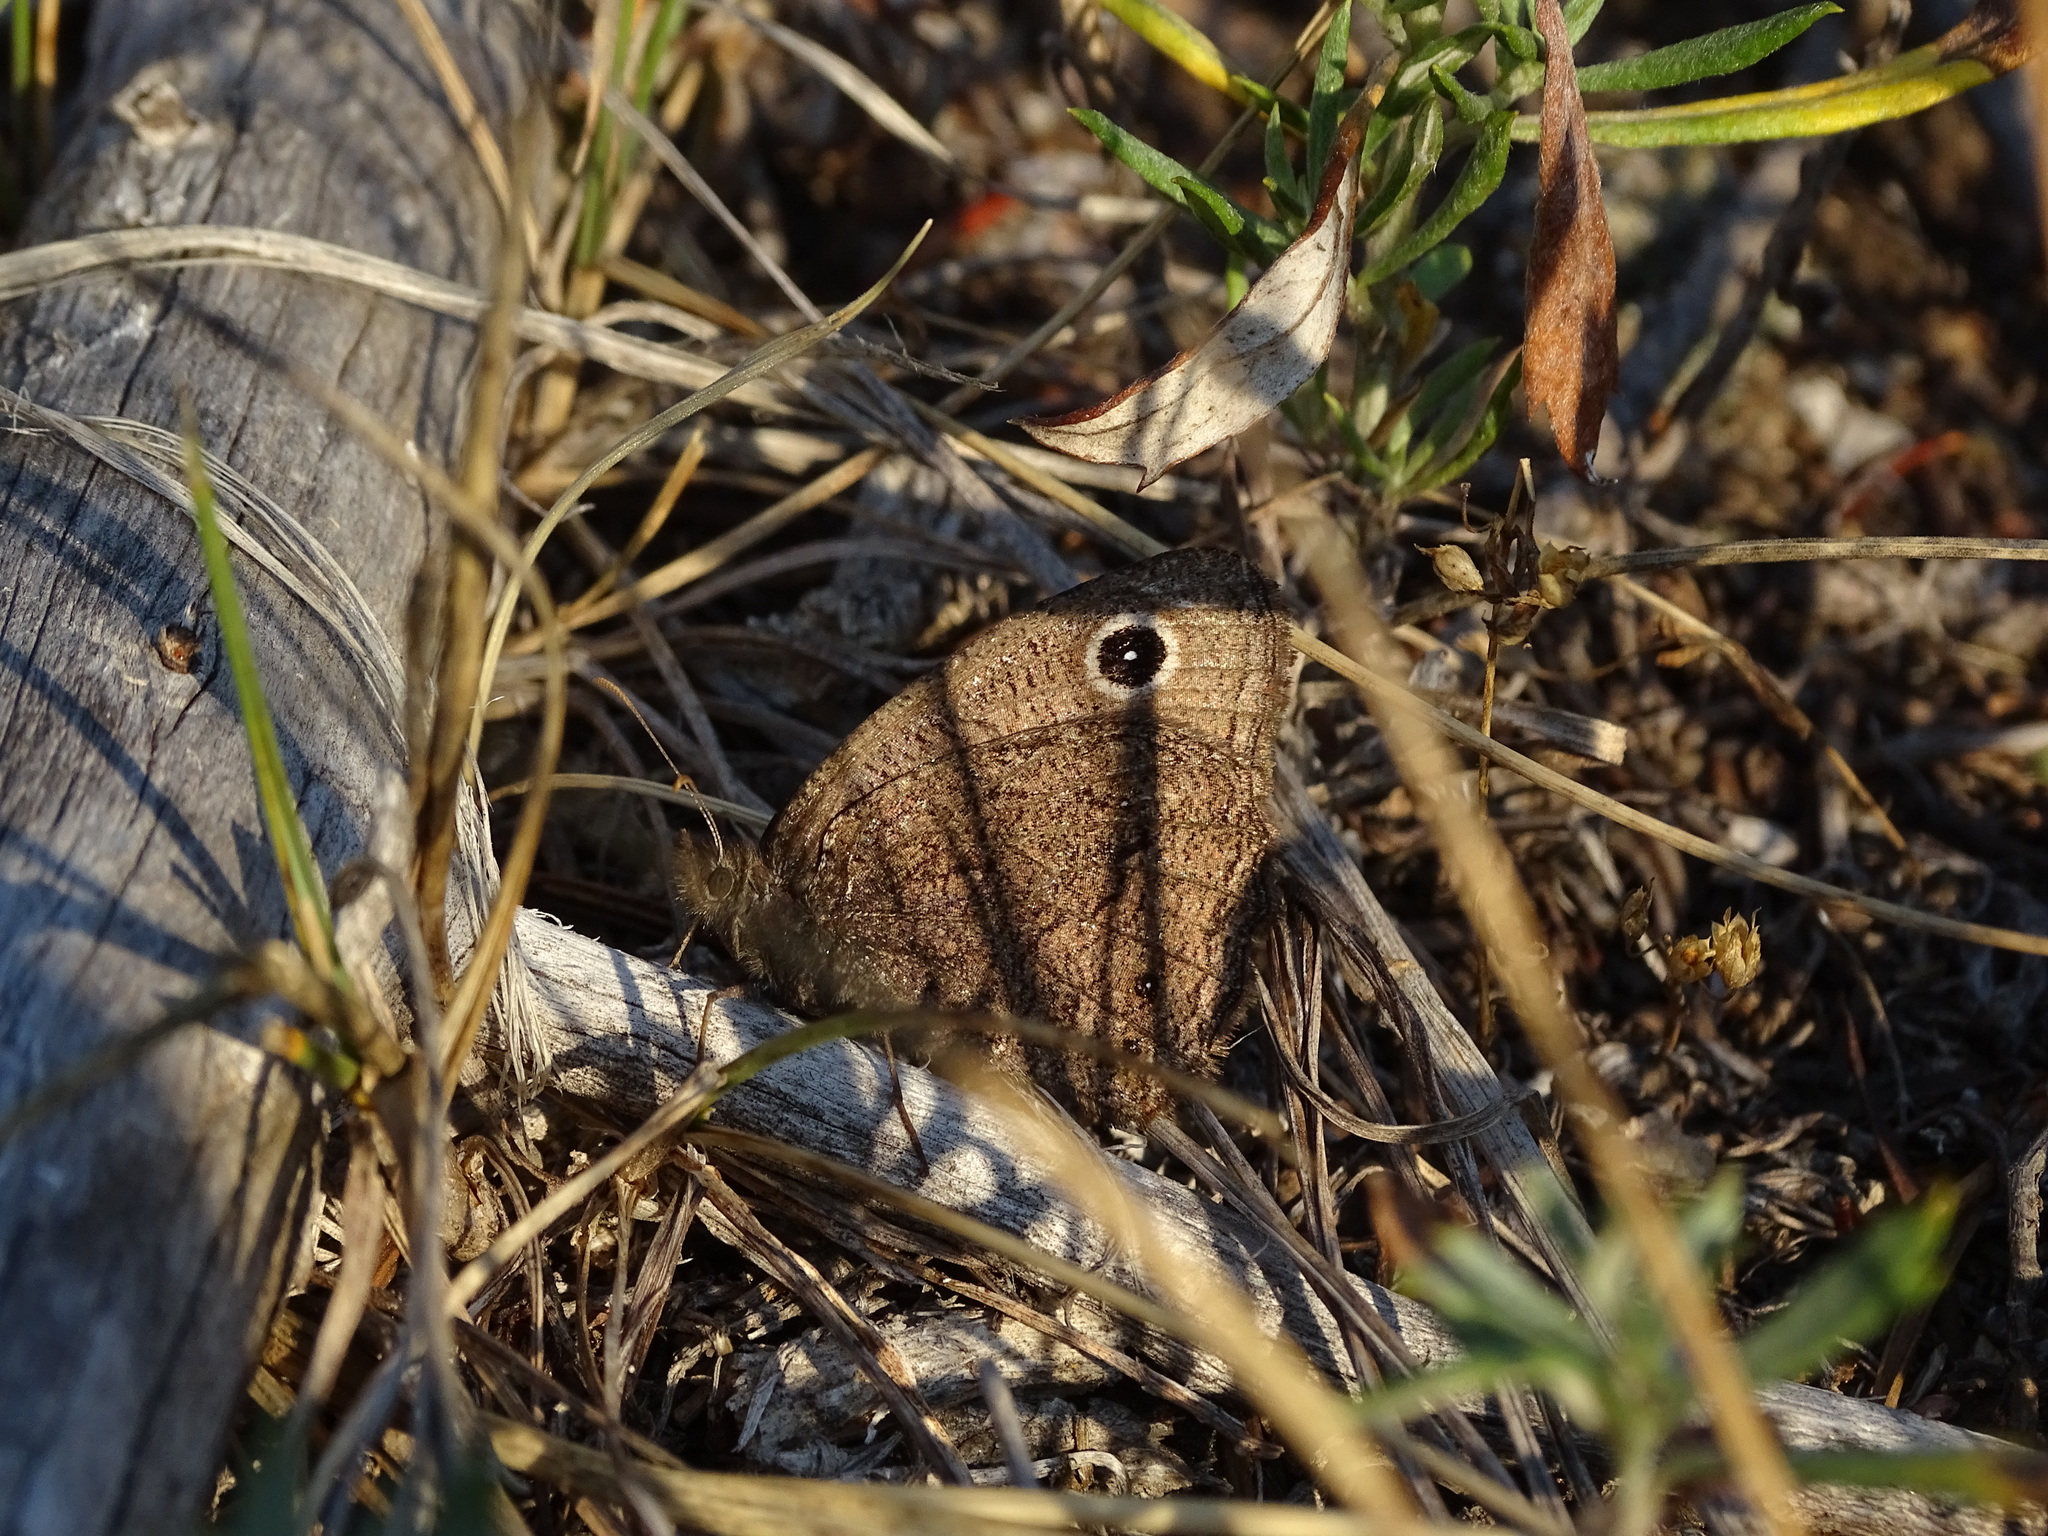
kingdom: Animalia
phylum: Arthropoda
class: Insecta
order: Lepidoptera
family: Nymphalidae
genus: Cercyonis
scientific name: Cercyonis oetus
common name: Small wood-nymph
